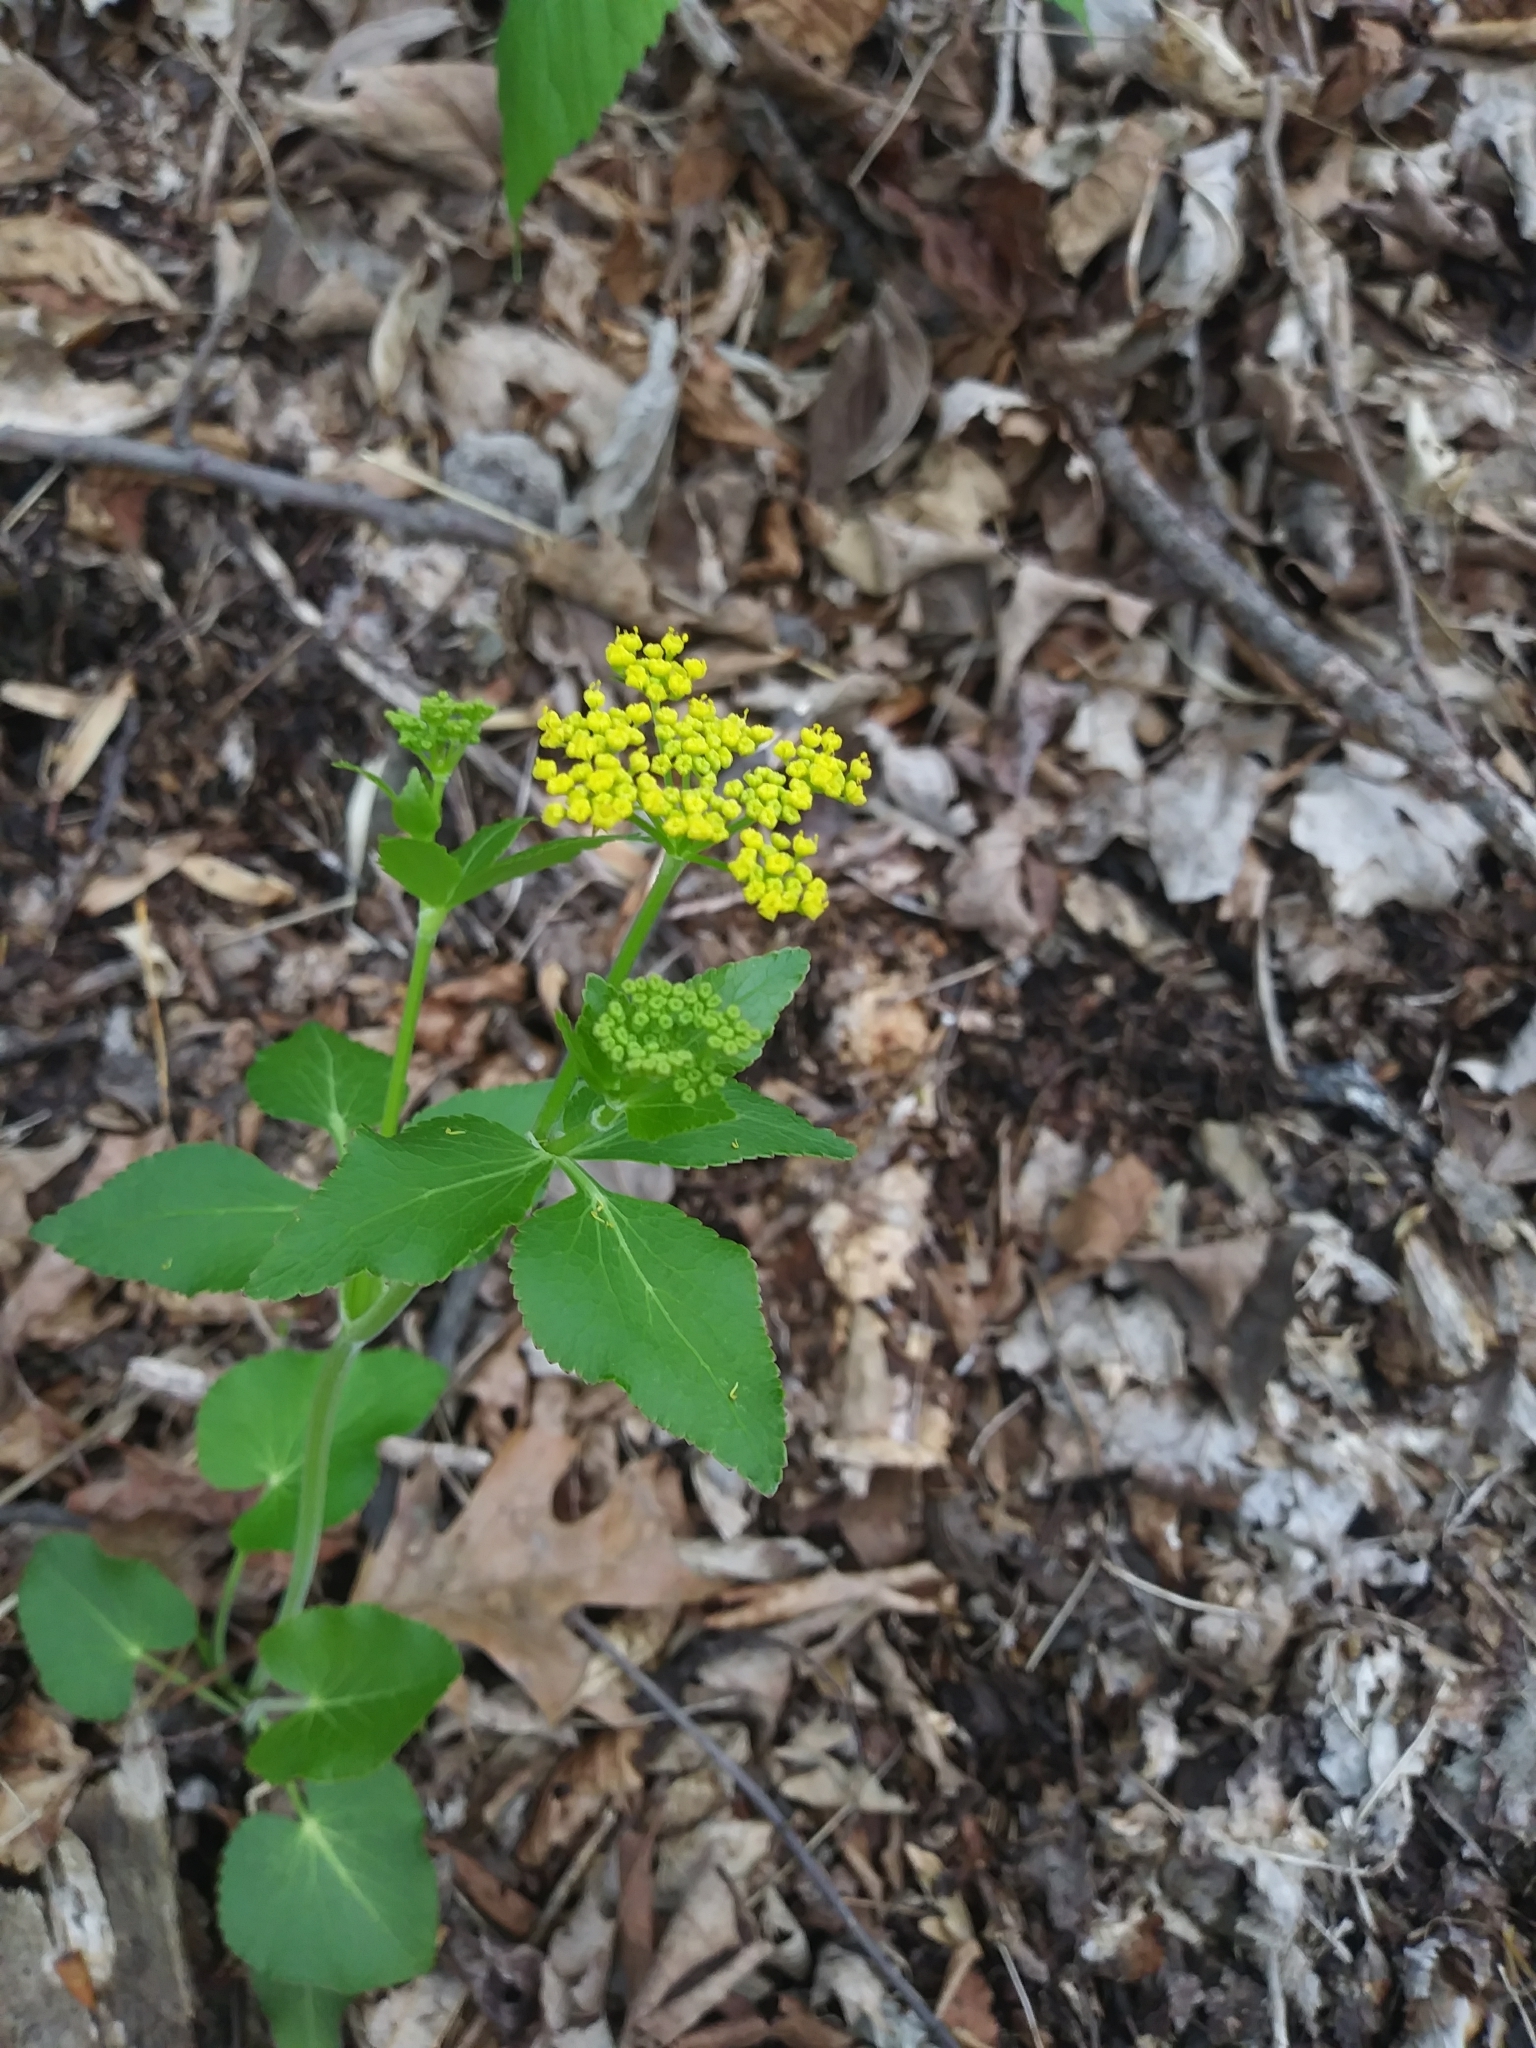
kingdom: Plantae
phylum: Tracheophyta
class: Magnoliopsida
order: Apiales
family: Apiaceae
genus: Zizia
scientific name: Zizia aurea
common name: Golden alexanders
